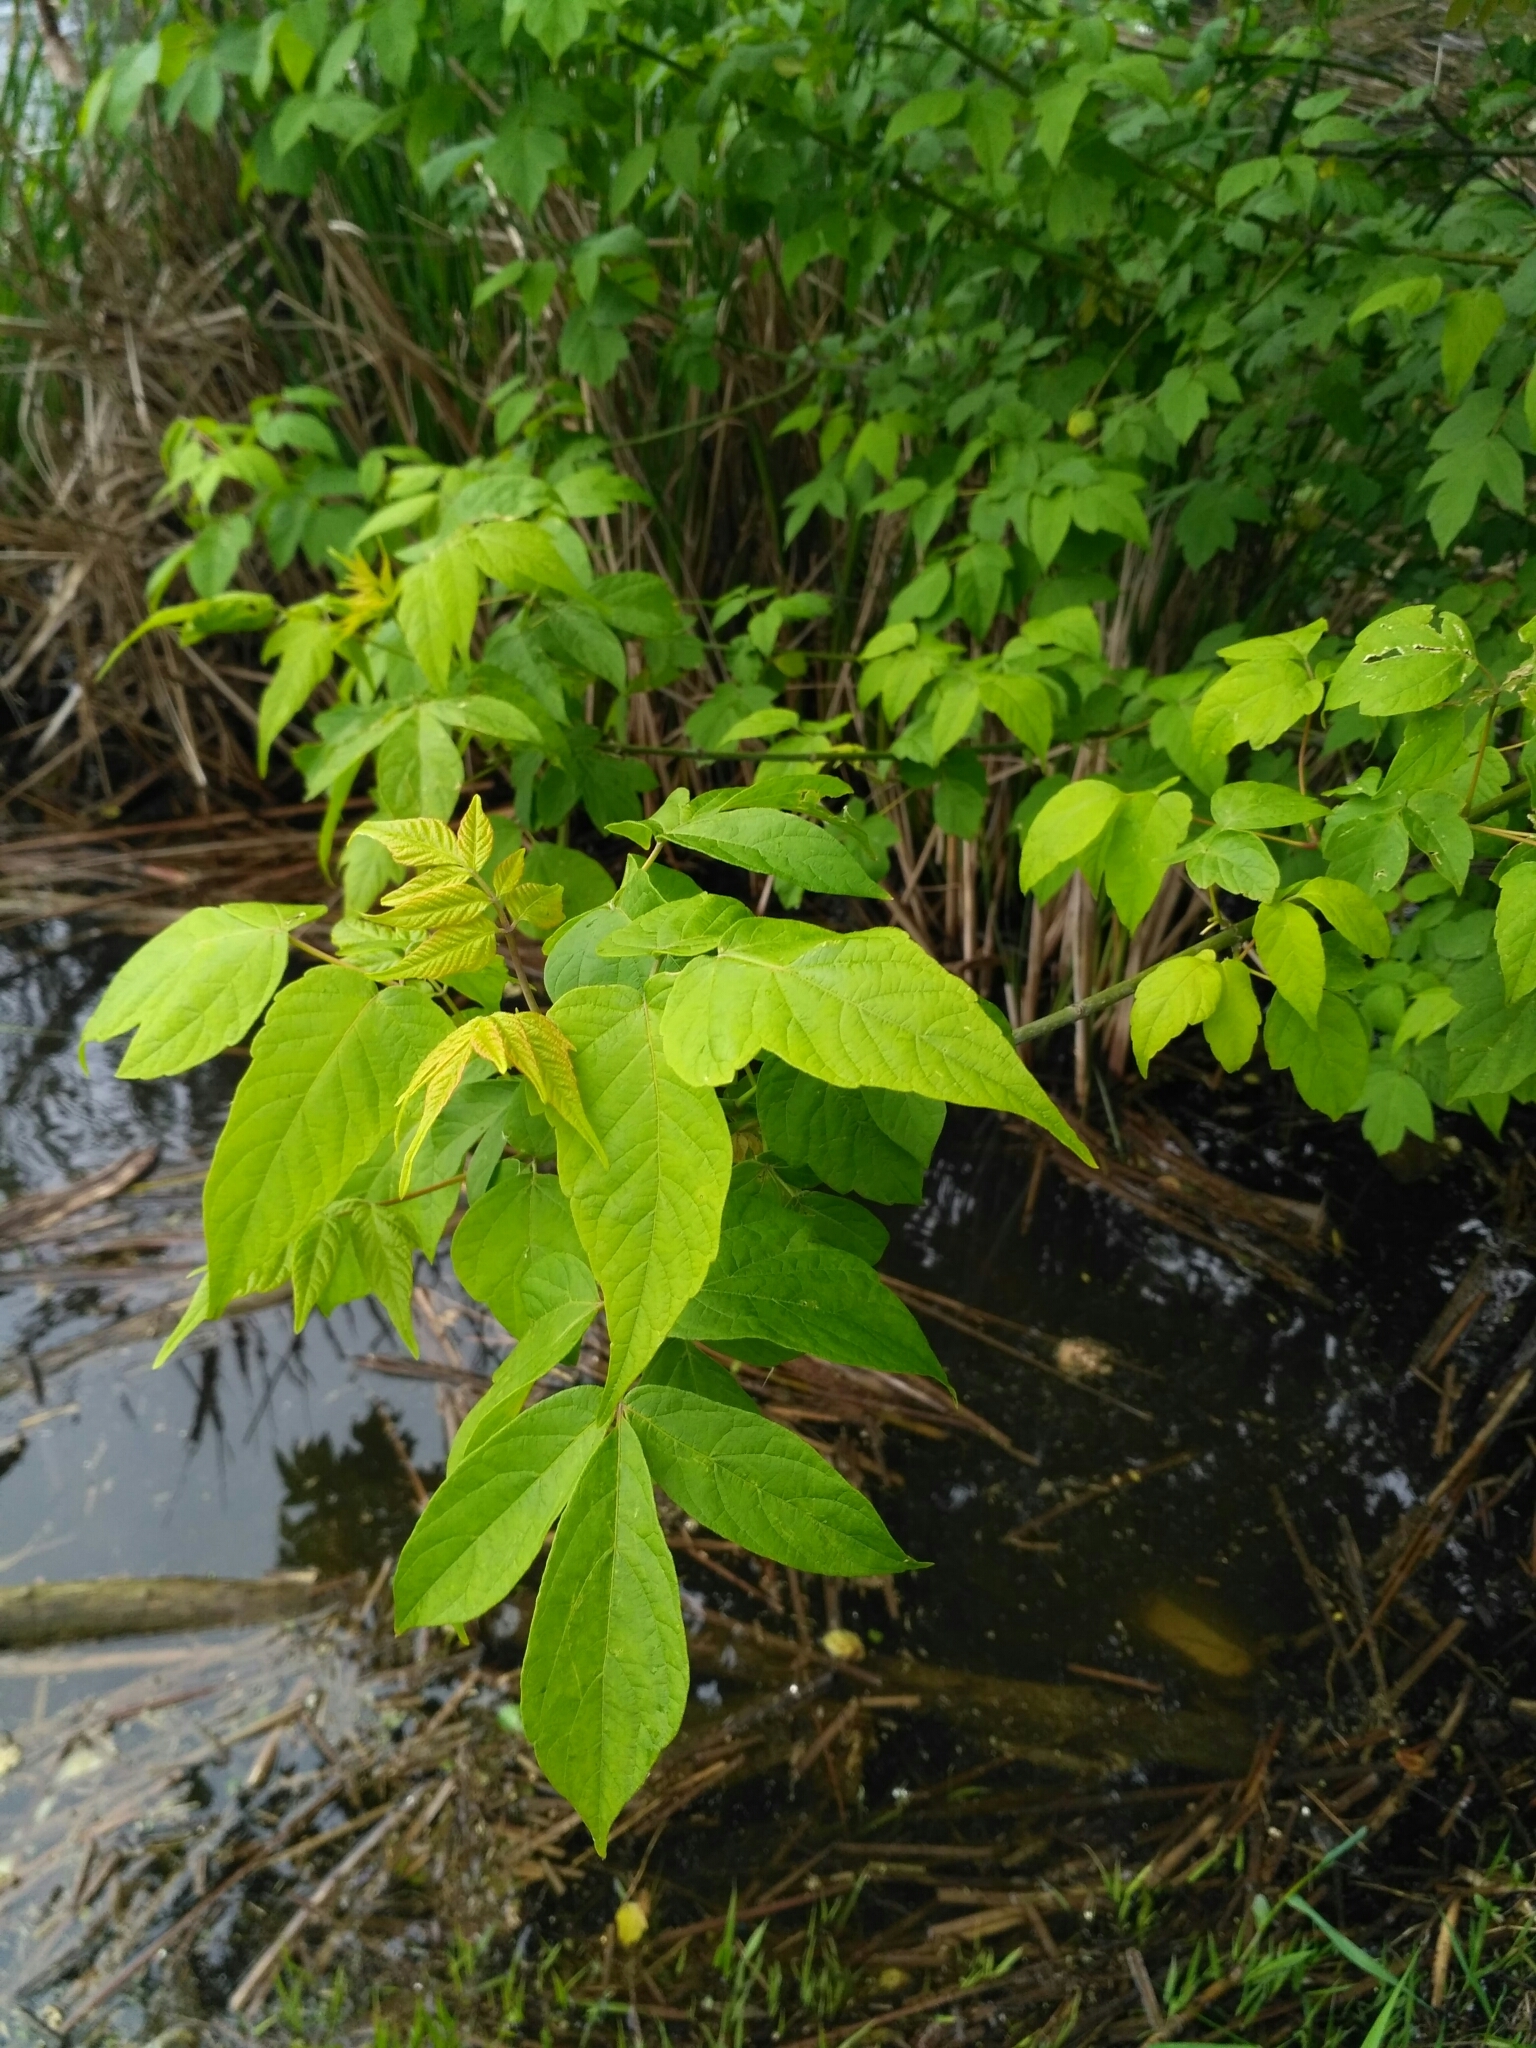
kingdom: Plantae
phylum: Tracheophyta
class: Magnoliopsida
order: Sapindales
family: Sapindaceae
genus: Acer
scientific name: Acer negundo
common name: Ashleaf maple
